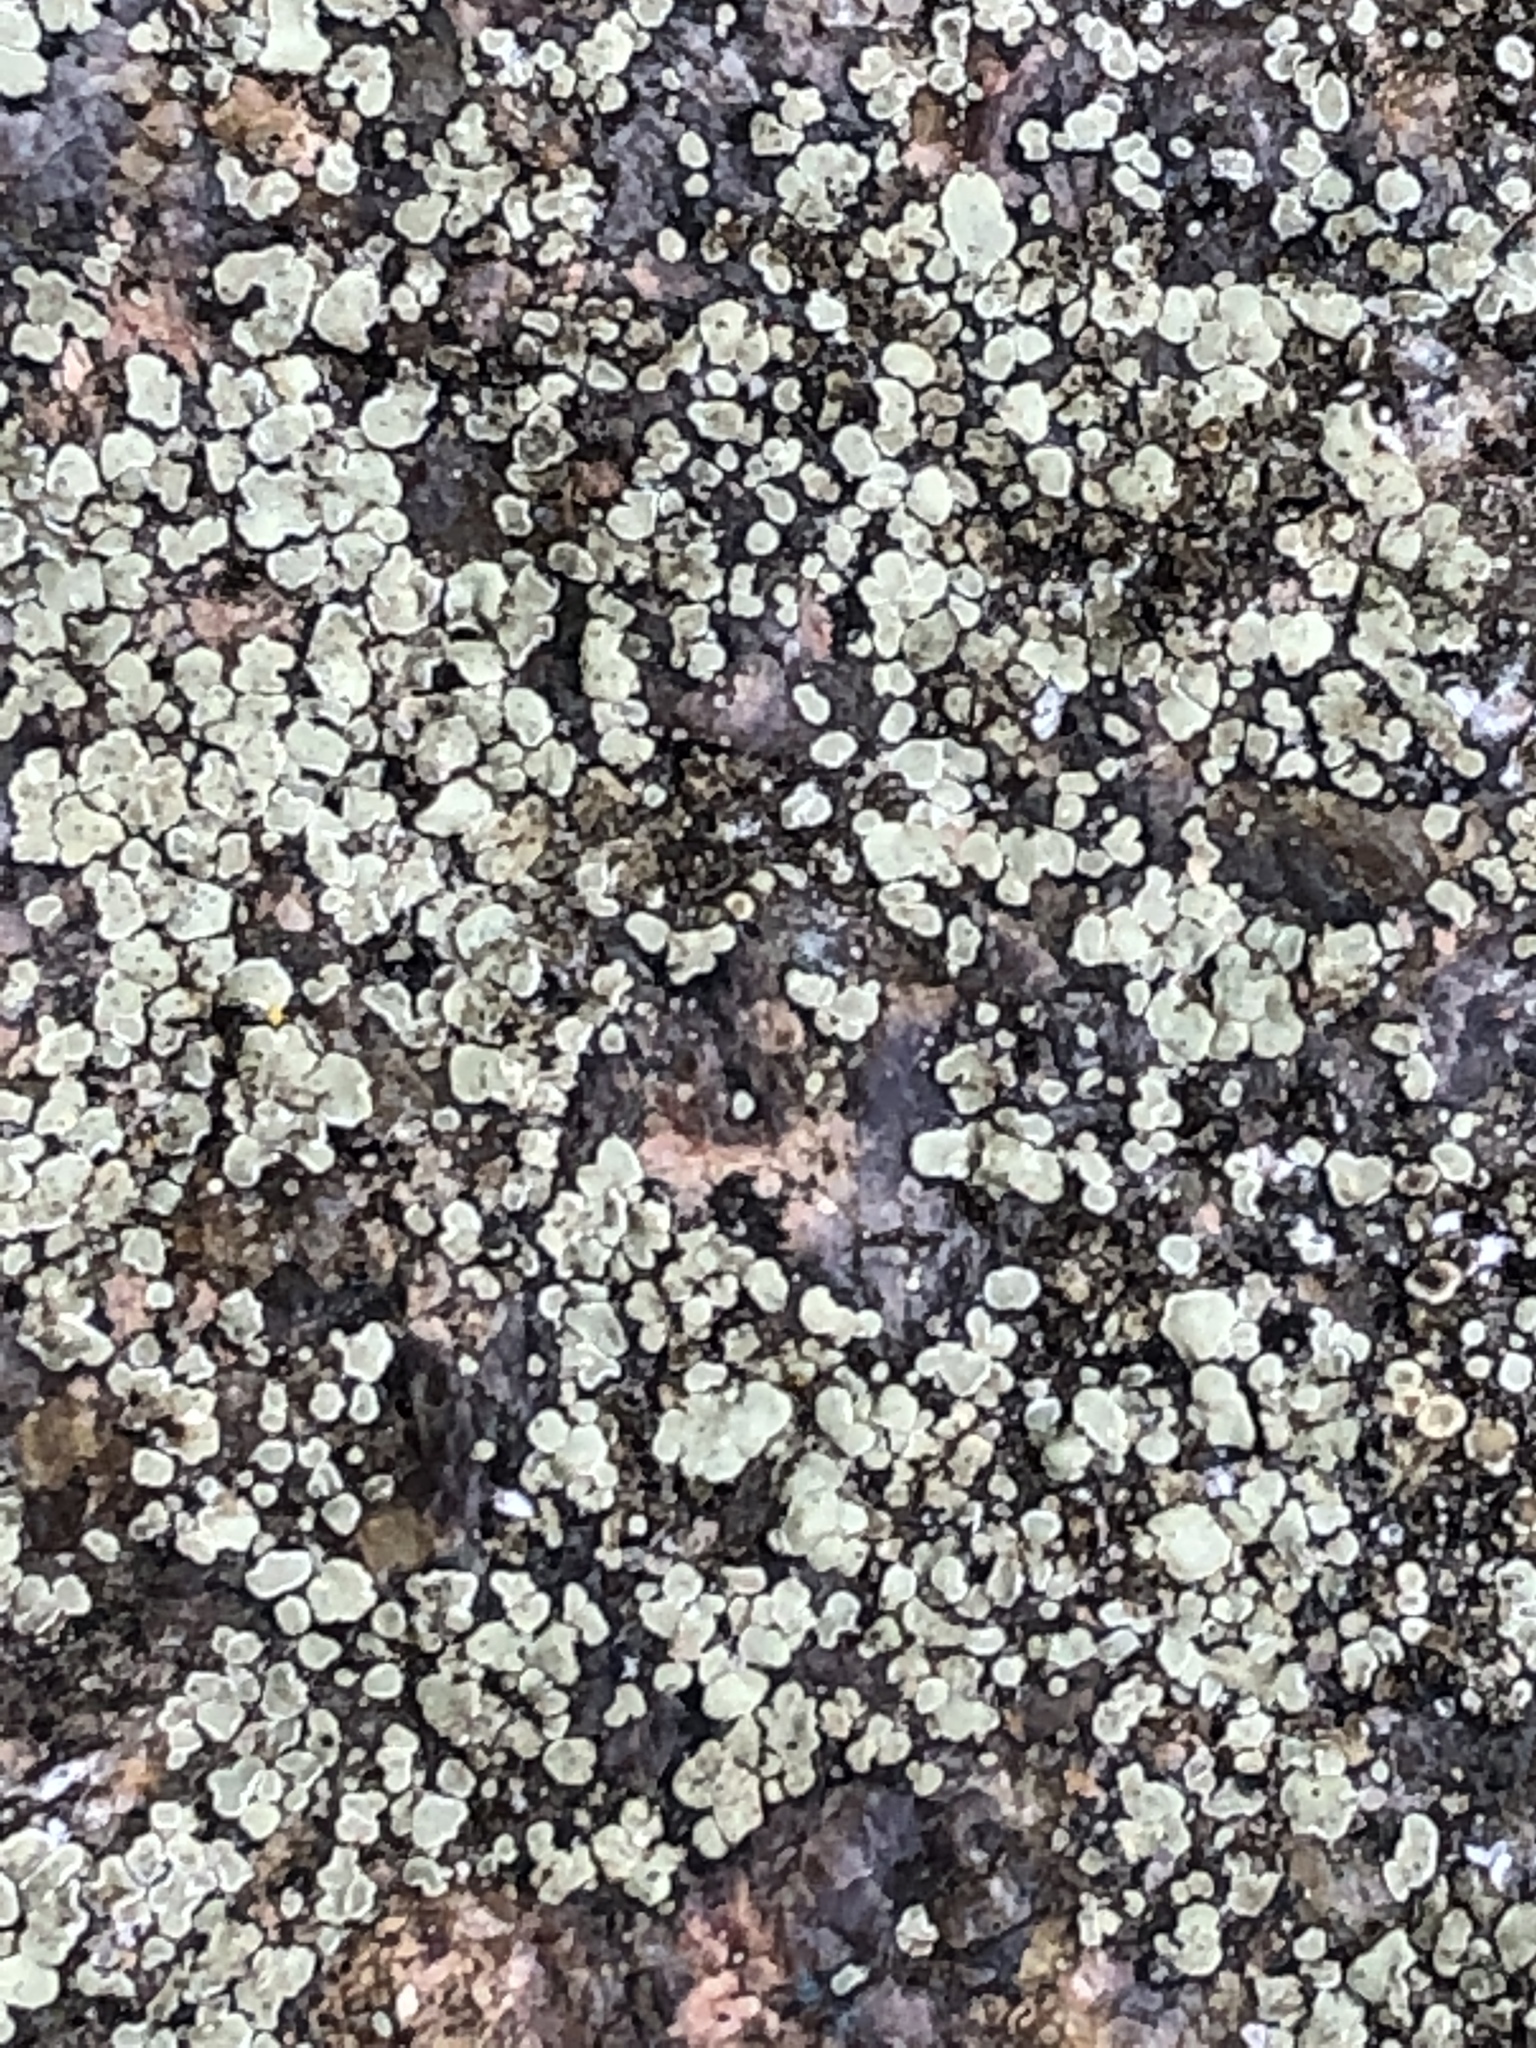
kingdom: Fungi
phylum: Ascomycota
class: Lecanoromycetes
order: Lecanorales
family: Lecanoraceae
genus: Protoparmeliopsis
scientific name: Protoparmeliopsis muralis
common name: Stonewall rim lichen
